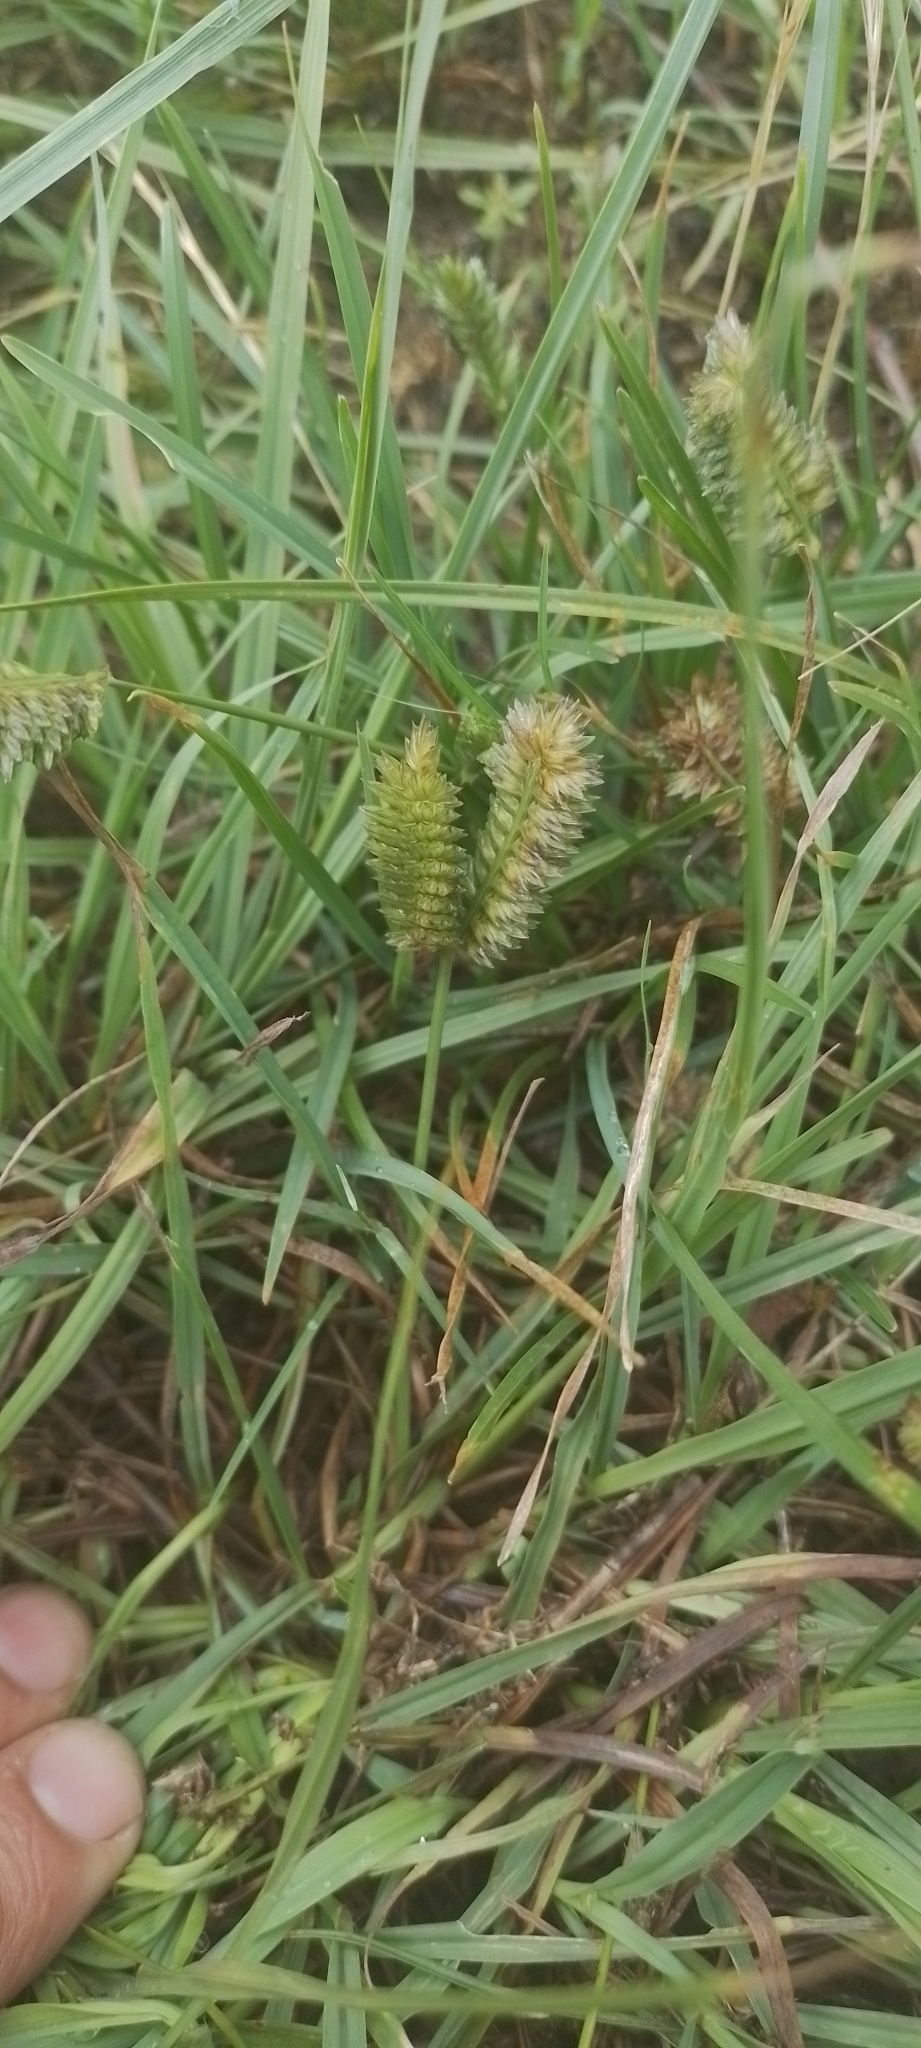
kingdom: Plantae
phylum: Tracheophyta
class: Liliopsida
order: Poales
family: Poaceae
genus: Eleusine
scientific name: Eleusine tristachya
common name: American yard-grass
